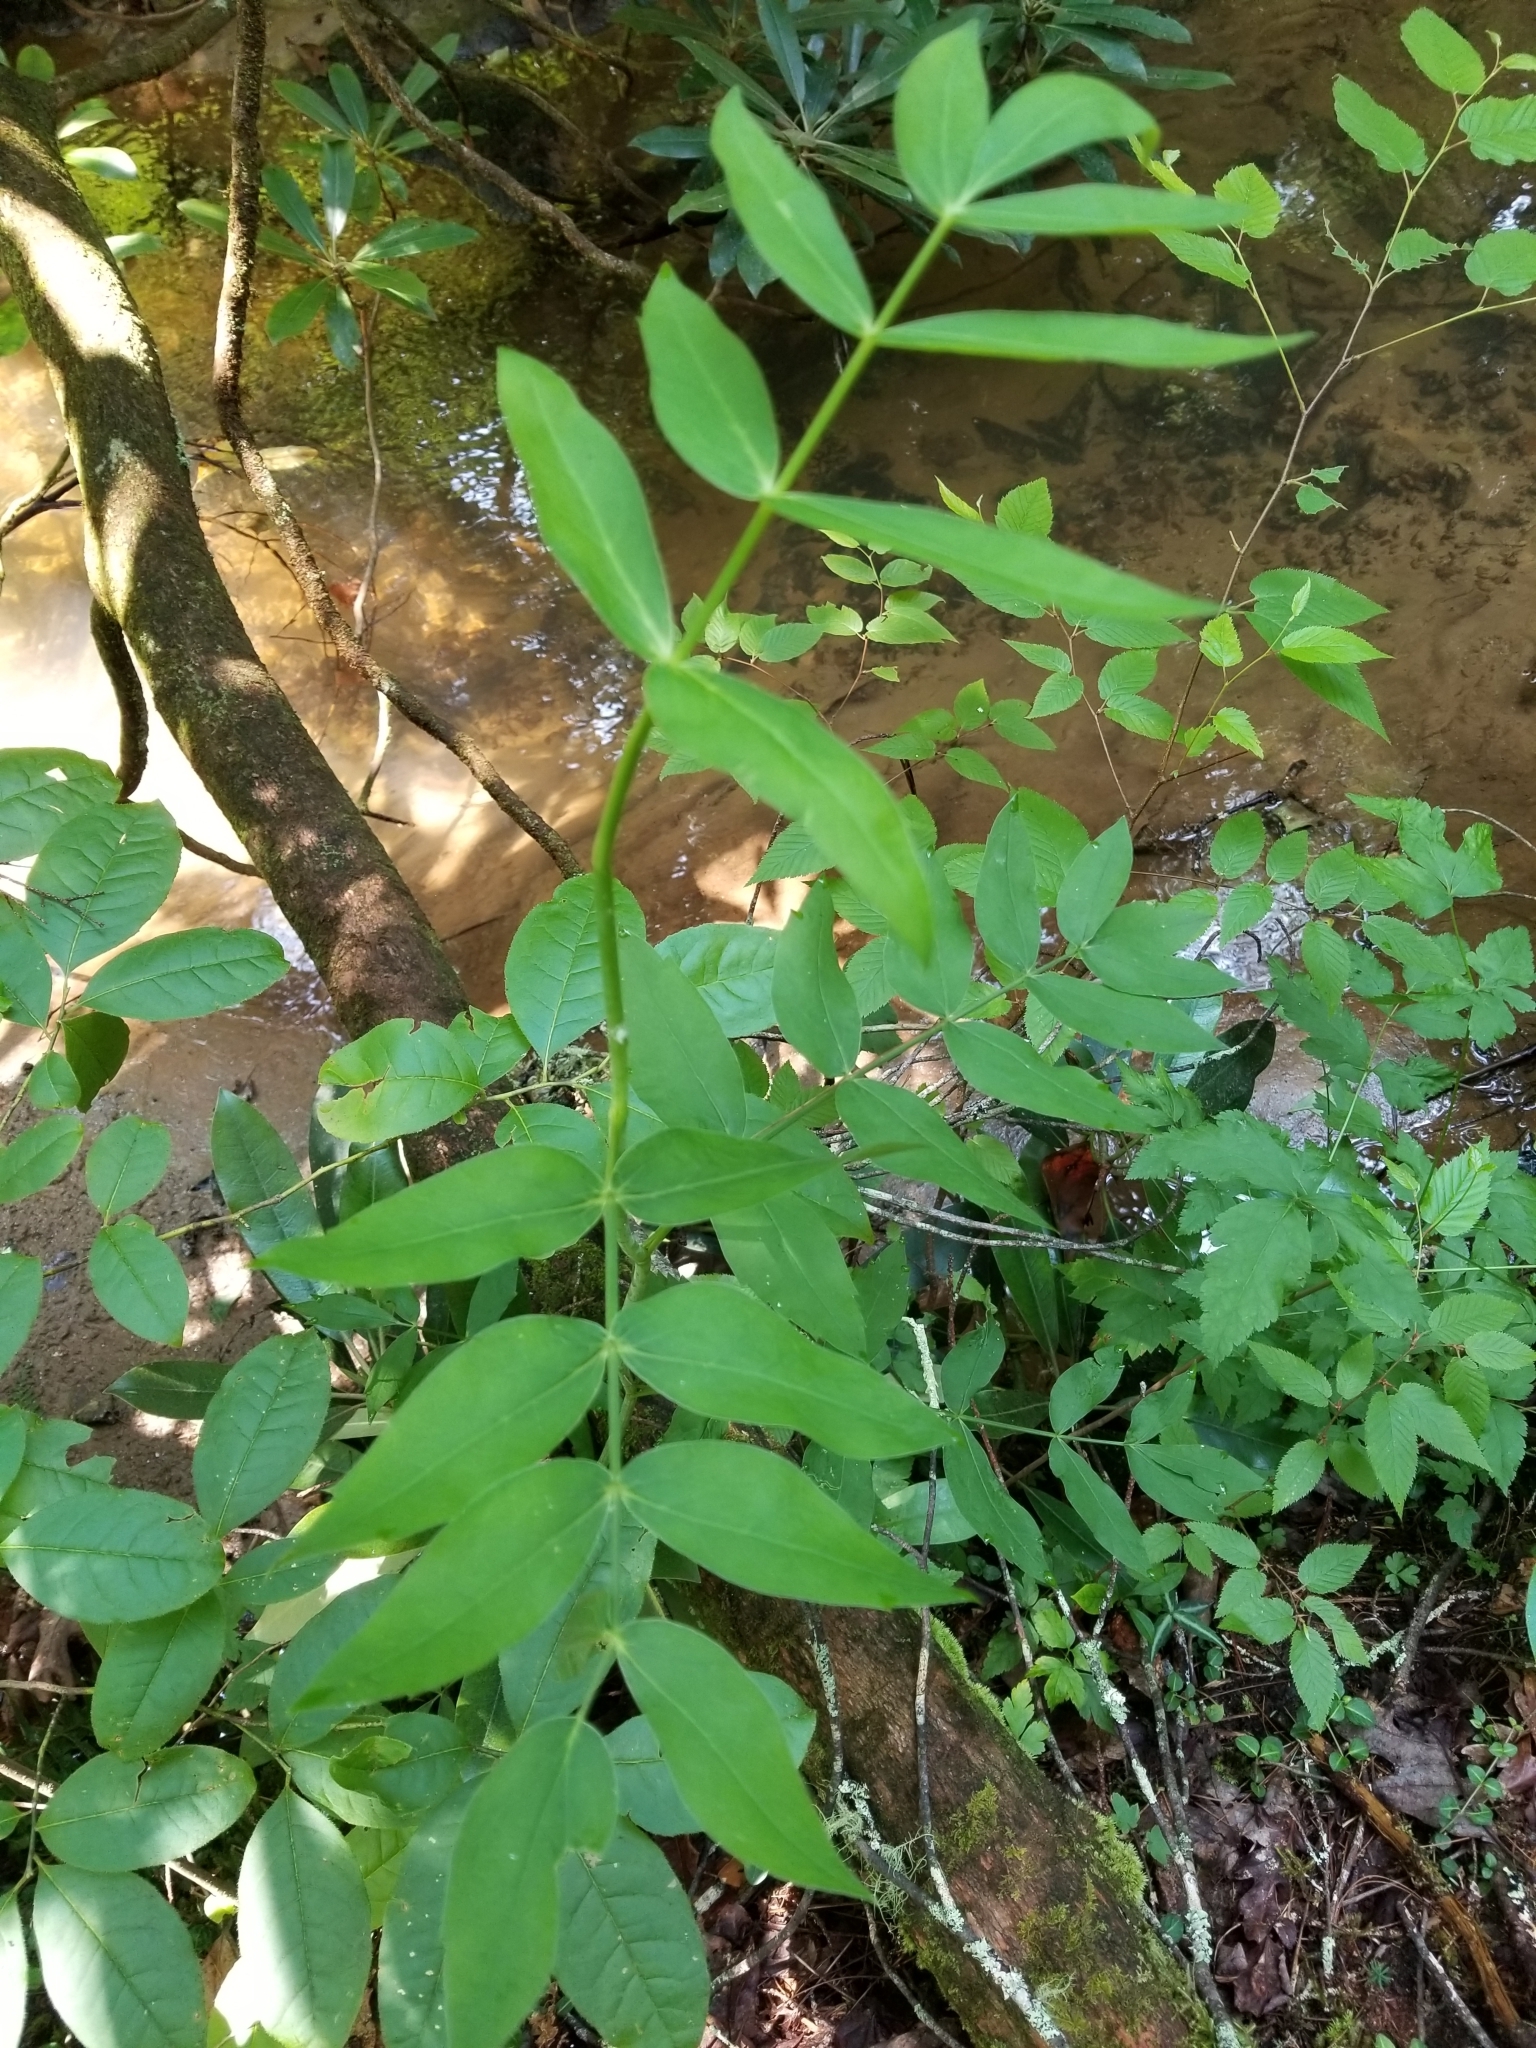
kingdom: Plantae
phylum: Tracheophyta
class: Magnoliopsida
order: Apiales
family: Apiaceae
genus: Oxypolis
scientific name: Oxypolis rigidior
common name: Cowbane
